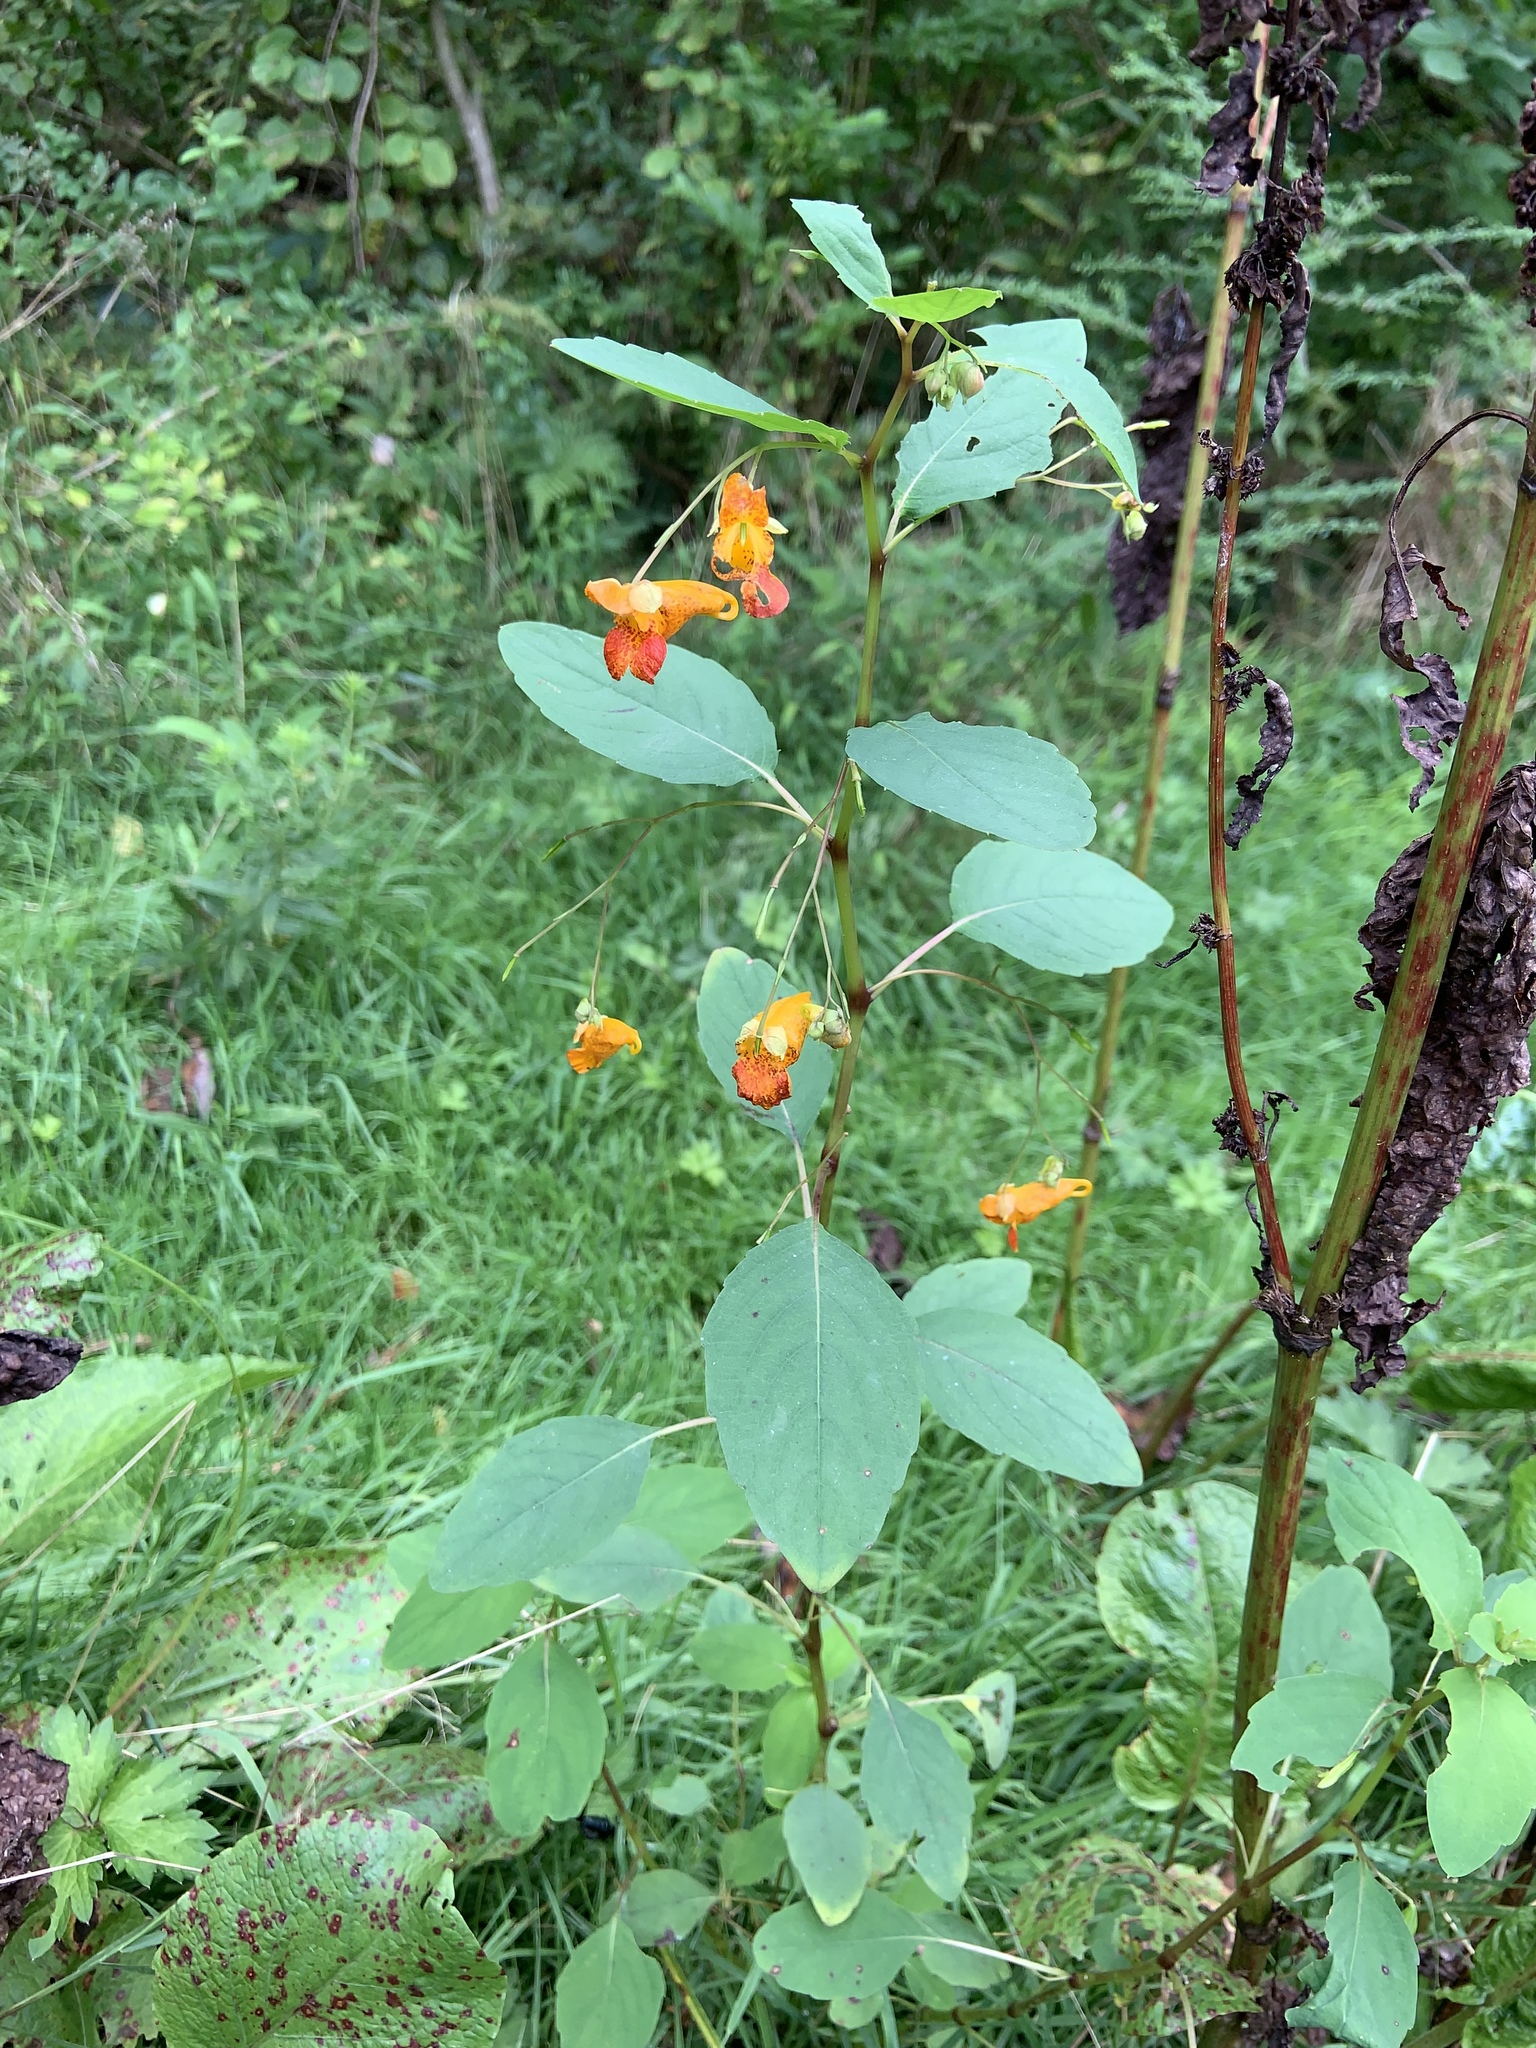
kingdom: Plantae
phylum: Tracheophyta
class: Magnoliopsida
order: Ericales
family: Balsaminaceae
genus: Impatiens
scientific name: Impatiens capensis
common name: Orange balsam
